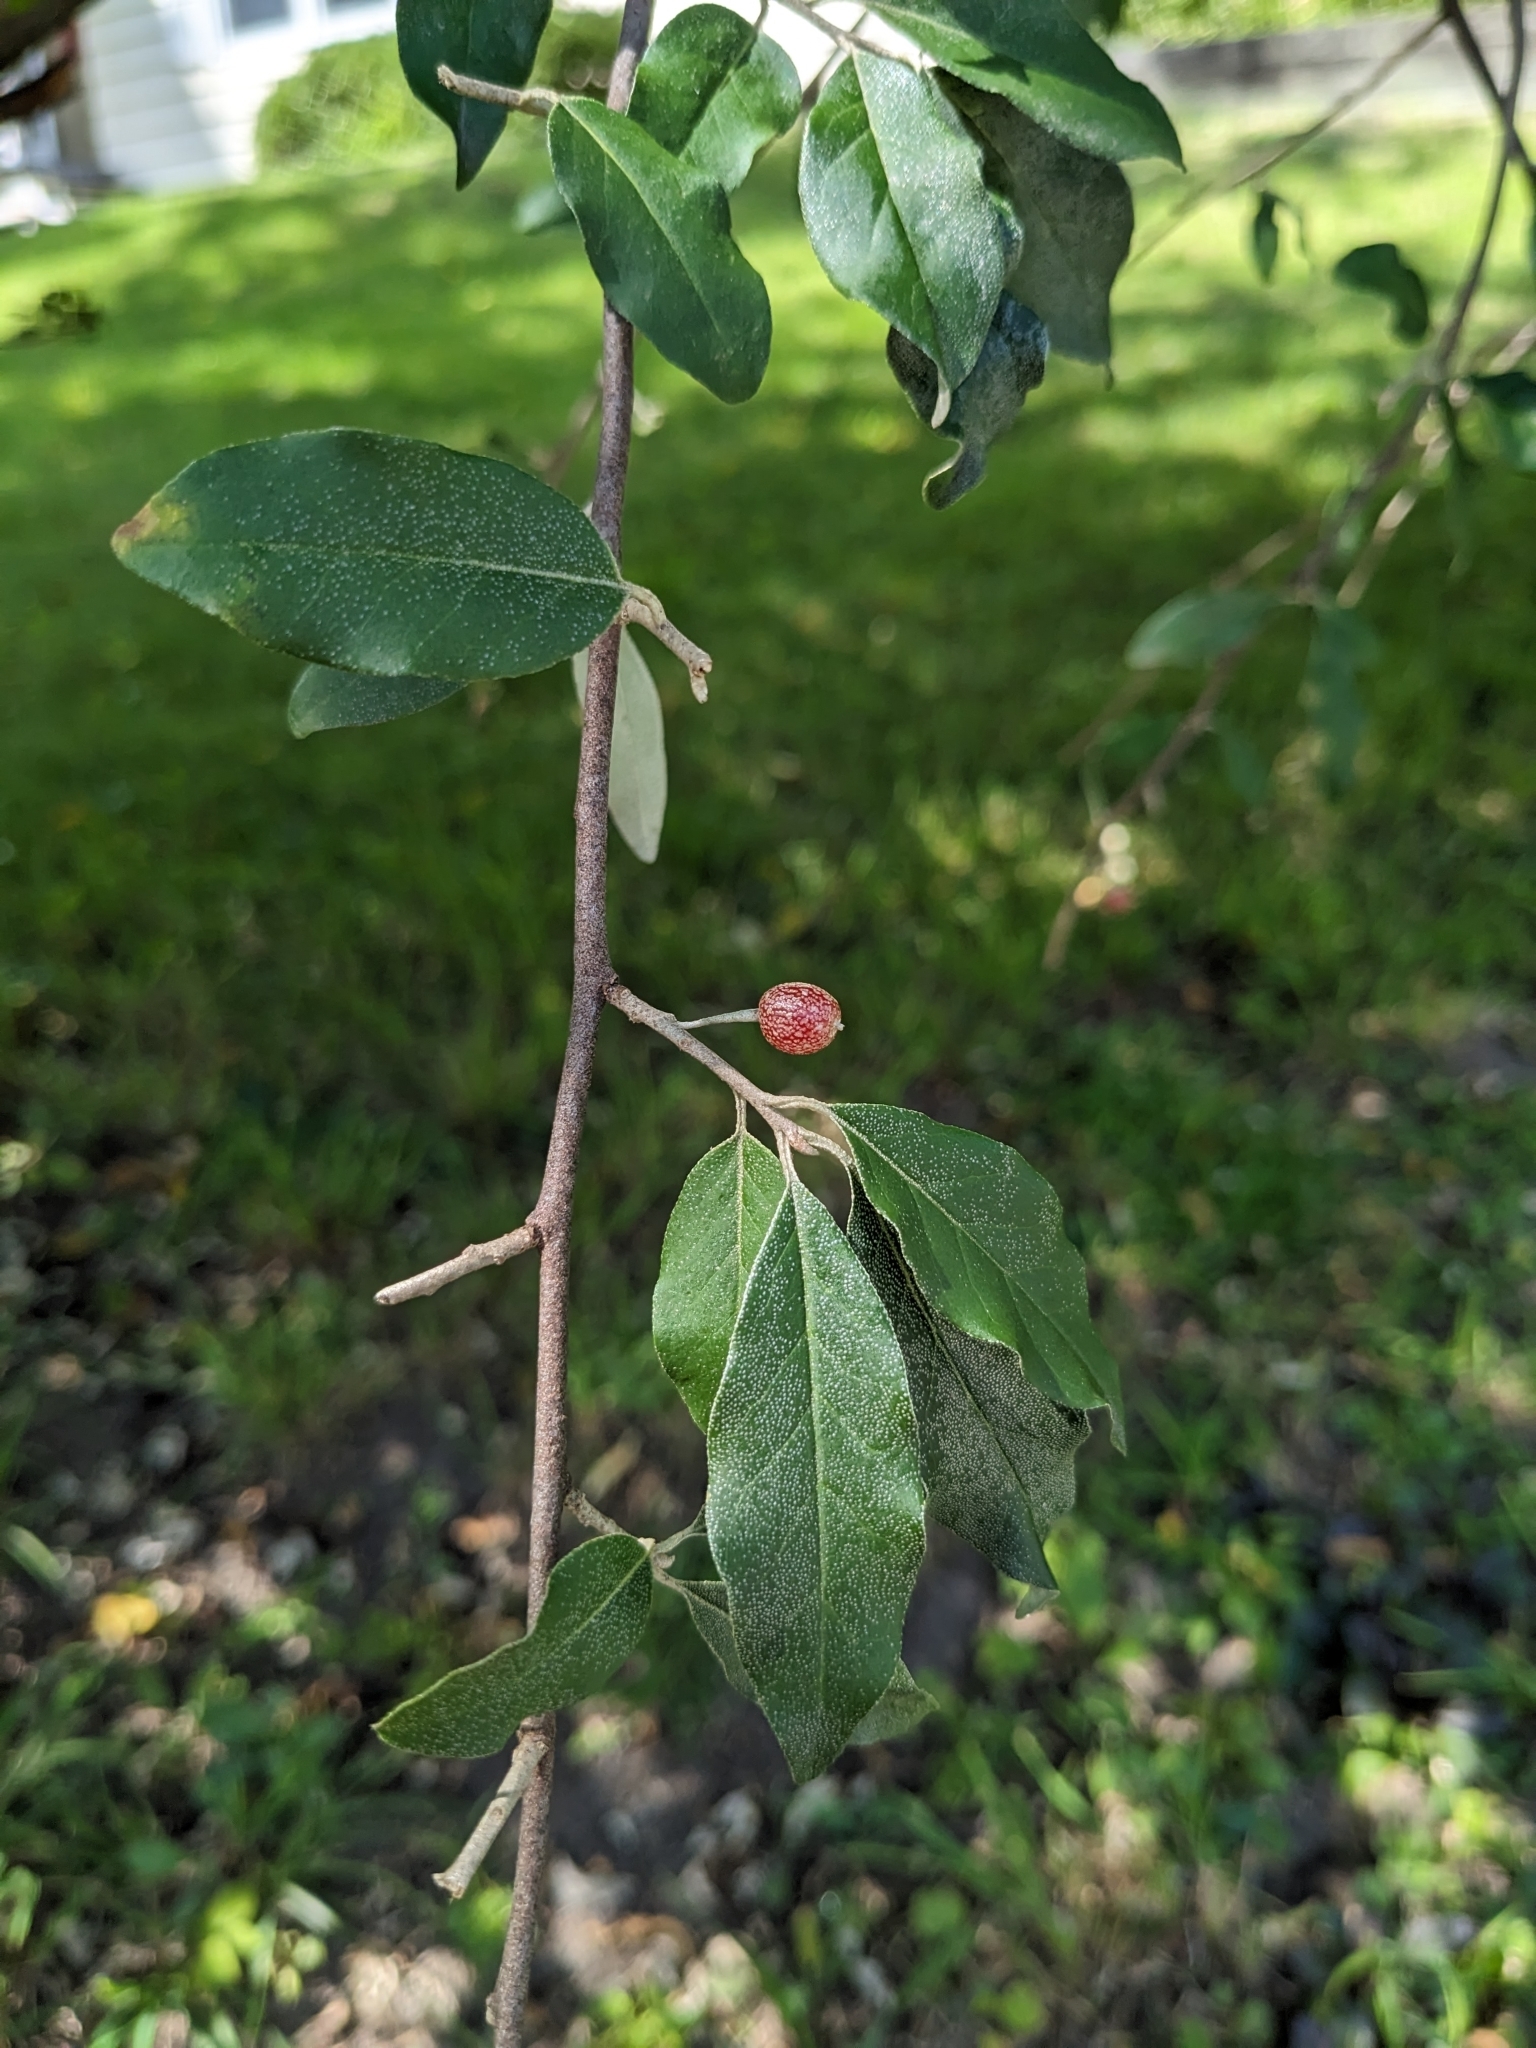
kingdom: Plantae
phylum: Tracheophyta
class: Magnoliopsida
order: Rosales
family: Elaeagnaceae
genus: Elaeagnus
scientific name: Elaeagnus umbellata
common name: Autumn olive
